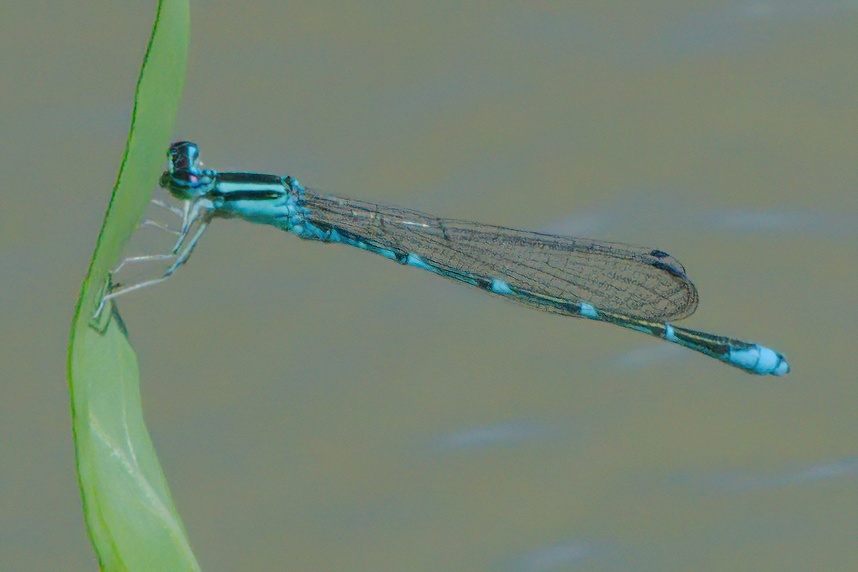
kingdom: Animalia
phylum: Arthropoda
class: Insecta
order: Odonata
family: Coenagrionidae
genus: Enallagma
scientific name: Enallagma exsulans
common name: Stream bluet
